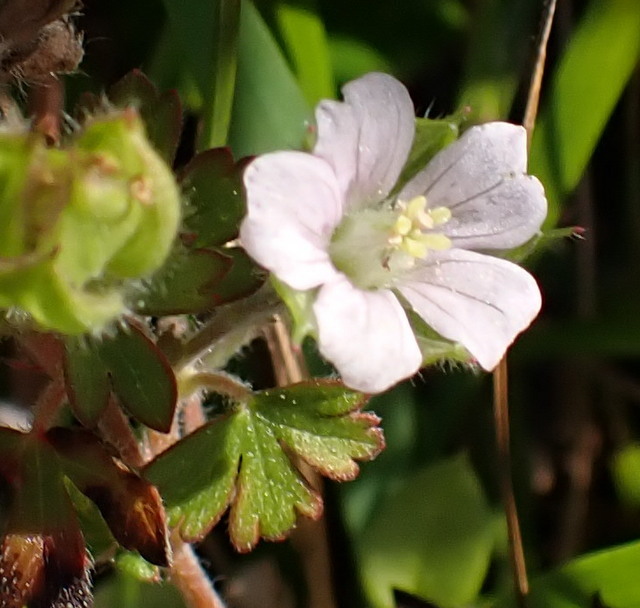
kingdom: Plantae
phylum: Tracheophyta
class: Magnoliopsida
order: Geraniales
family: Geraniaceae
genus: Geranium
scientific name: Geranium carolinianum
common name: Carolina crane's-bill
